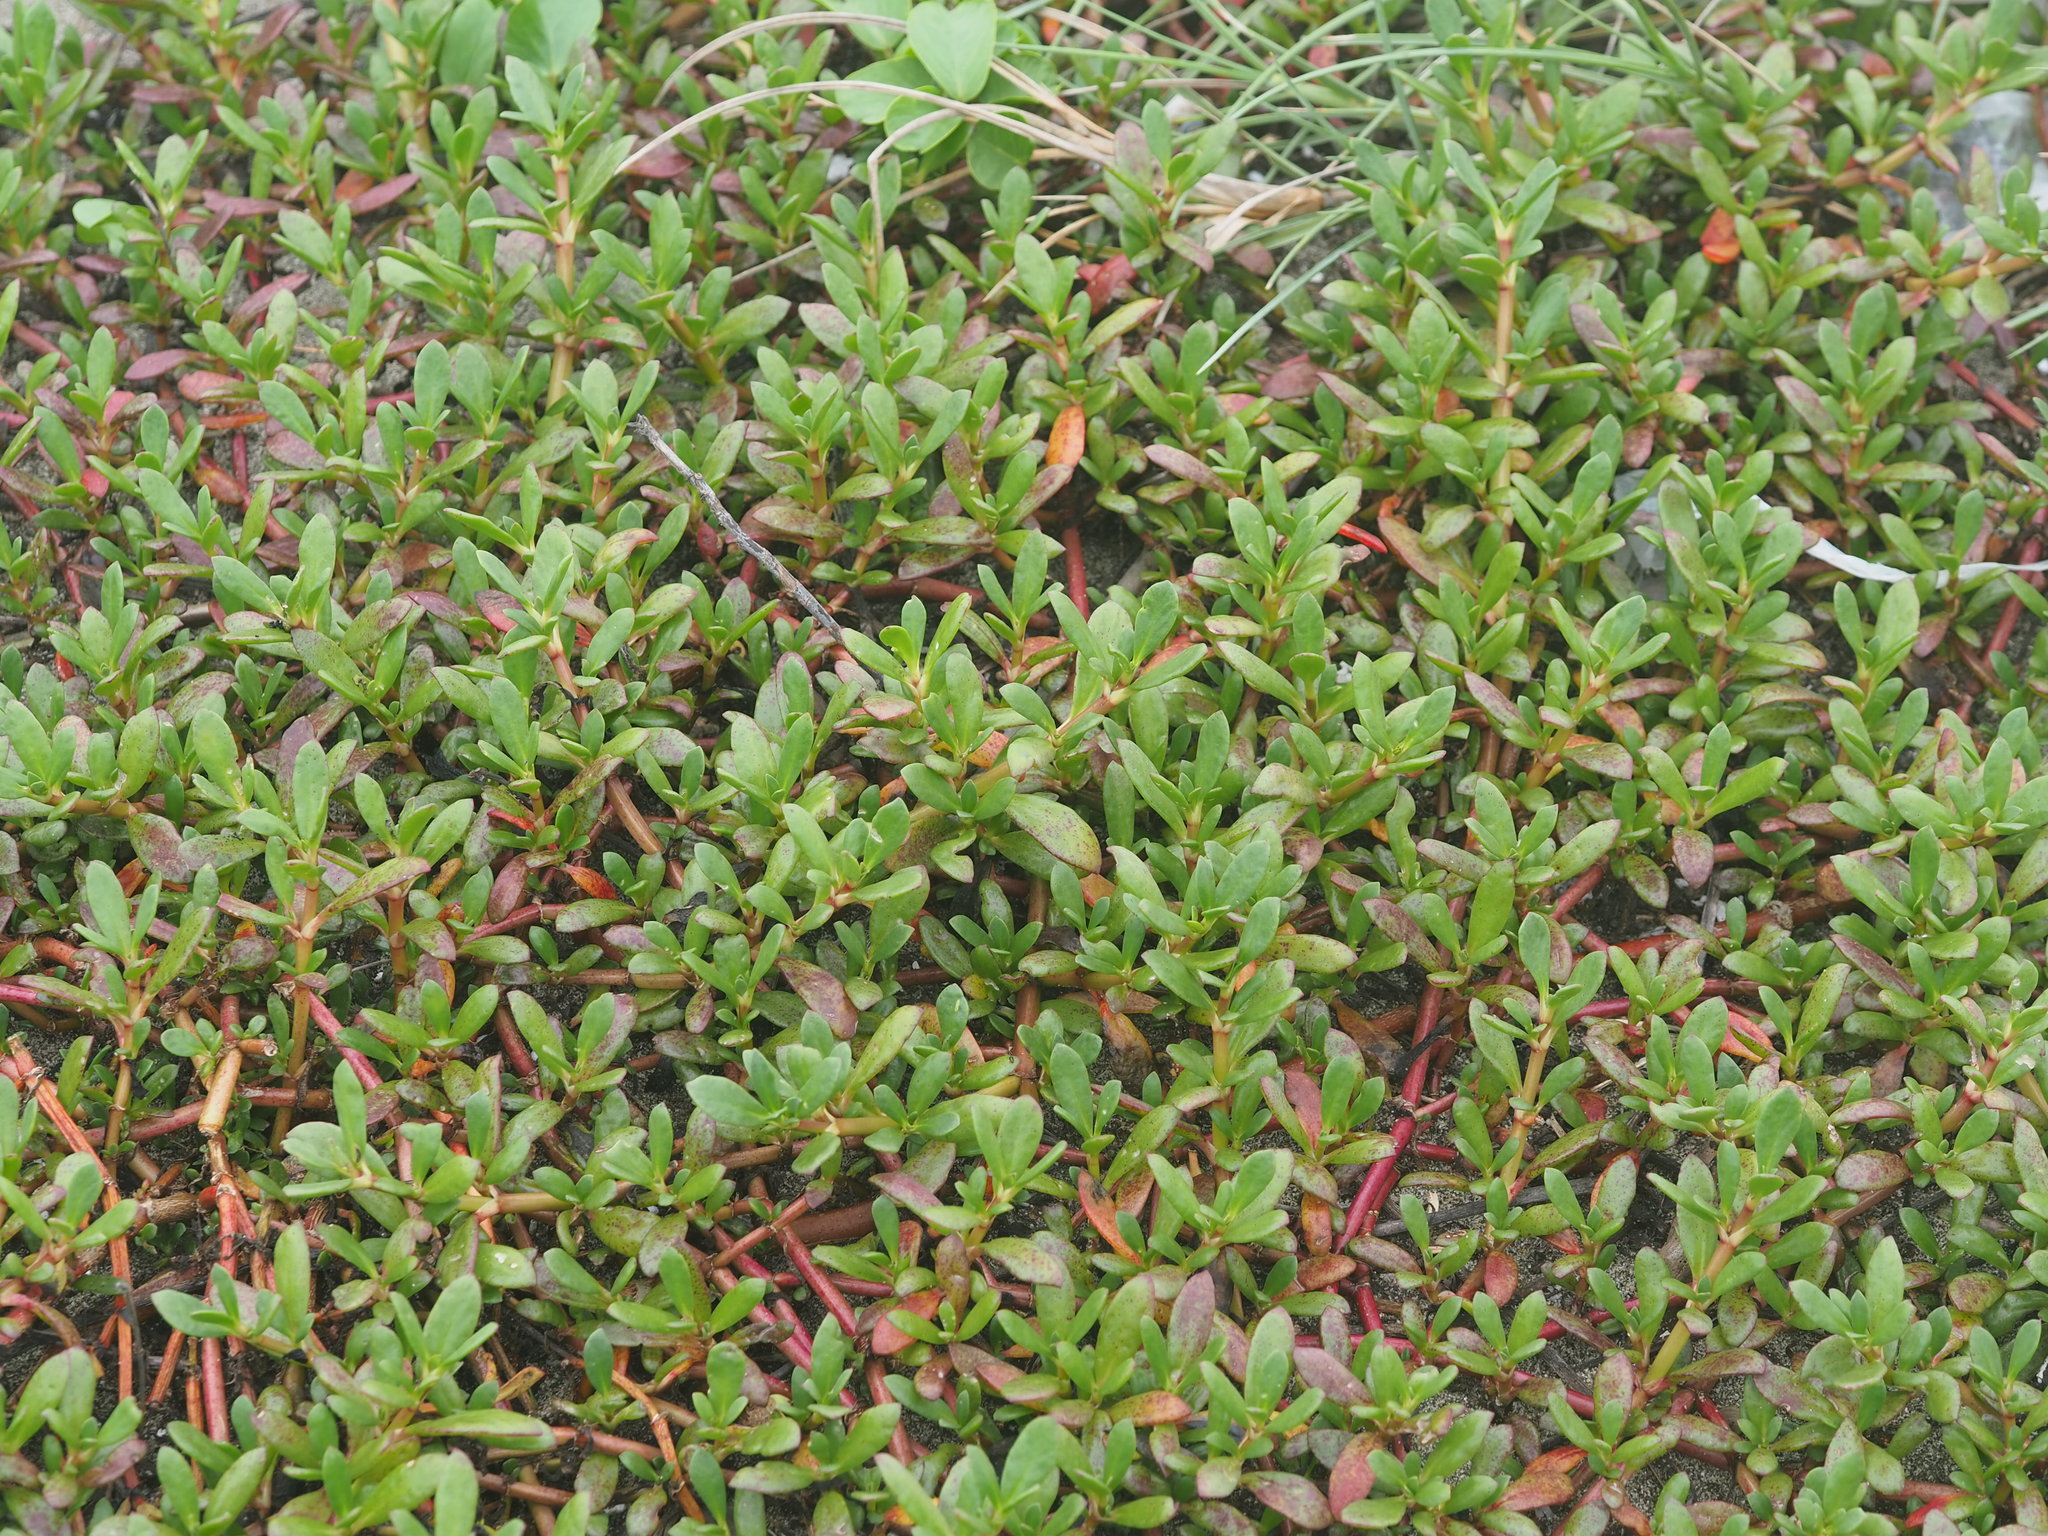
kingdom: Plantae
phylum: Tracheophyta
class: Magnoliopsida
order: Caryophyllales
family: Aizoaceae
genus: Sesuvium
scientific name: Sesuvium portulacastrum
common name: Sea-purslane
